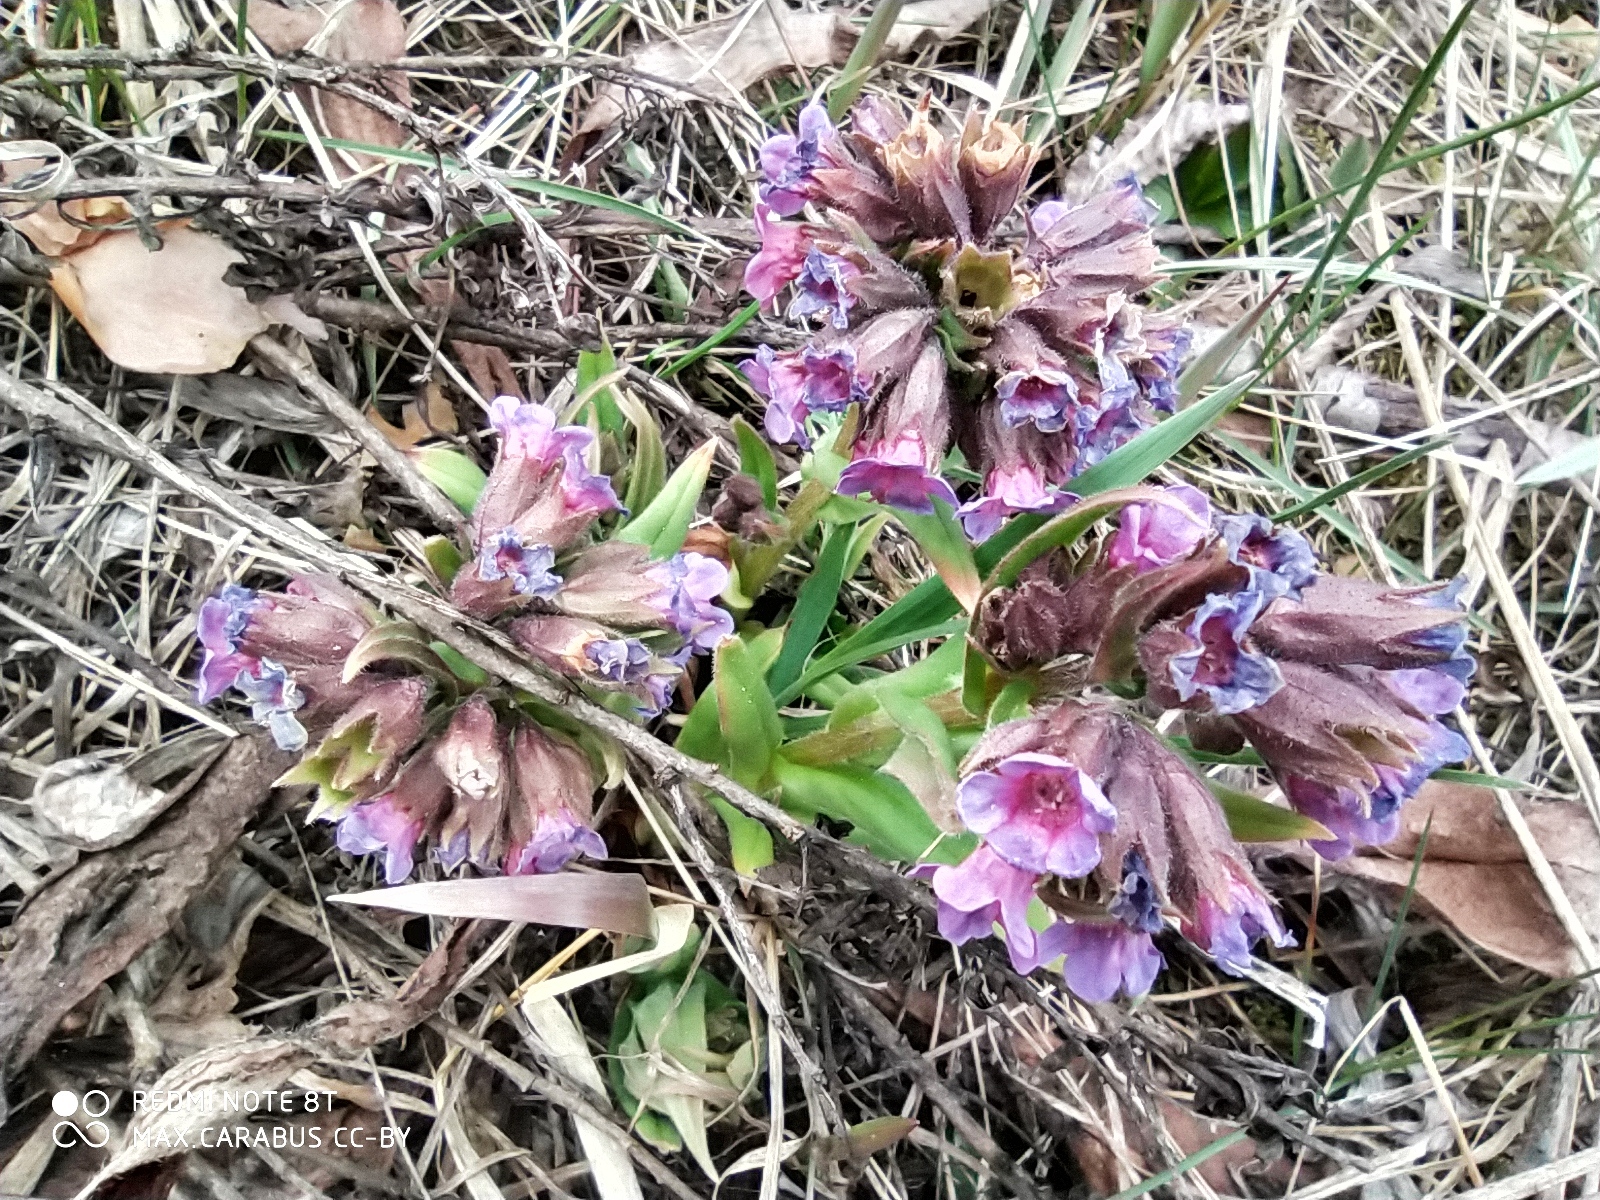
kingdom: Plantae
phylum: Tracheophyta
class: Magnoliopsida
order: Boraginales
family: Boraginaceae
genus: Pulmonaria
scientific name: Pulmonaria angustifolia
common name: Blue cowslip
